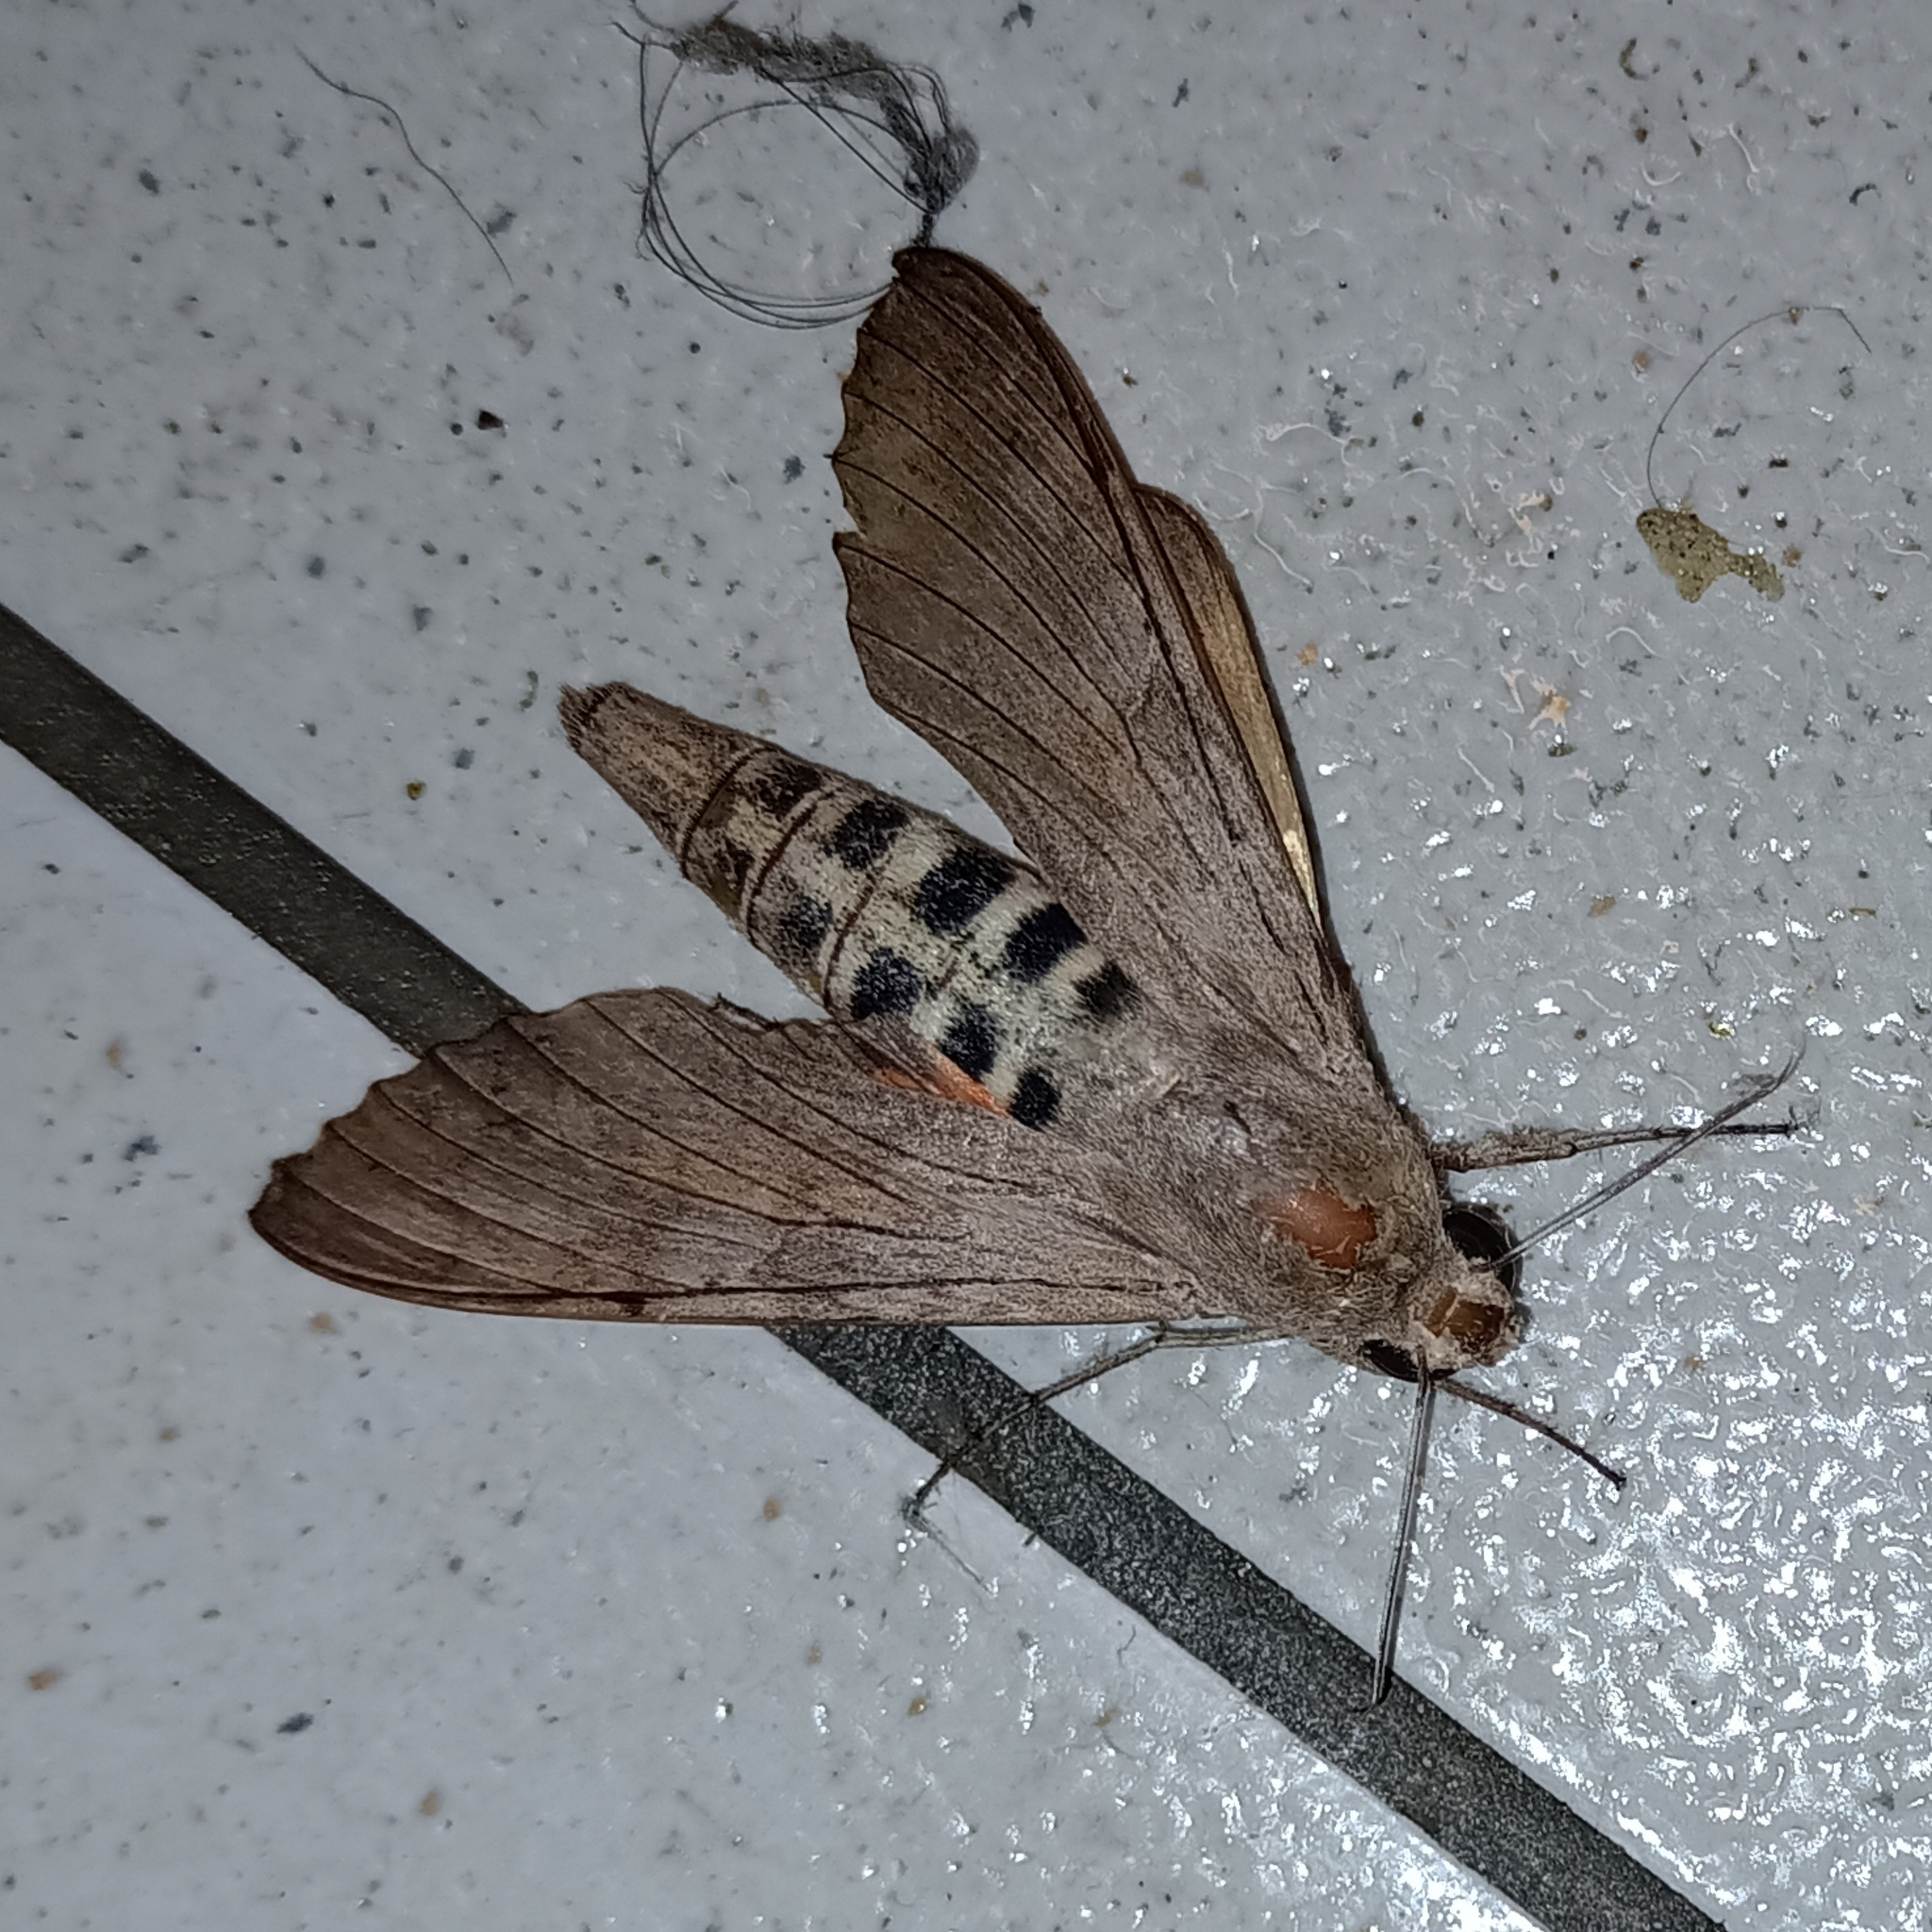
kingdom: Animalia
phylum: Arthropoda
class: Insecta
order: Lepidoptera
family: Sphingidae
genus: Erinnyis
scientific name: Erinnyis ello
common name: Ello sphinx
